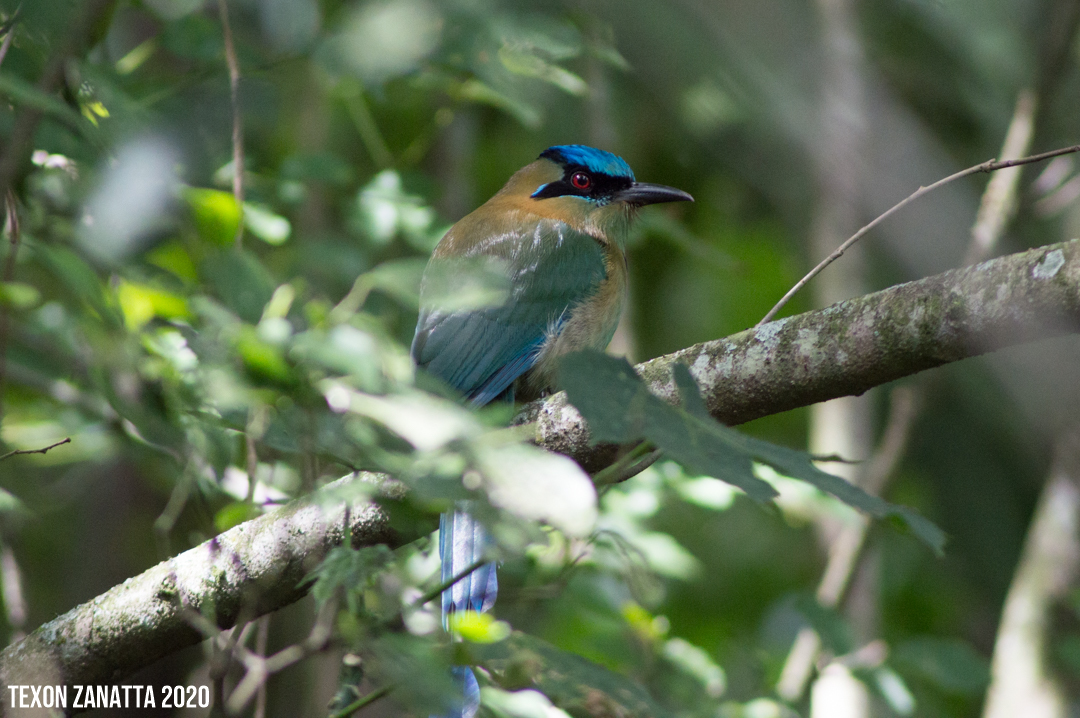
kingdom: Animalia
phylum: Chordata
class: Aves
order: Coraciiformes
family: Momotidae
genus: Momotus
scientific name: Momotus coeruliceps
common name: Blue-capped motmot
